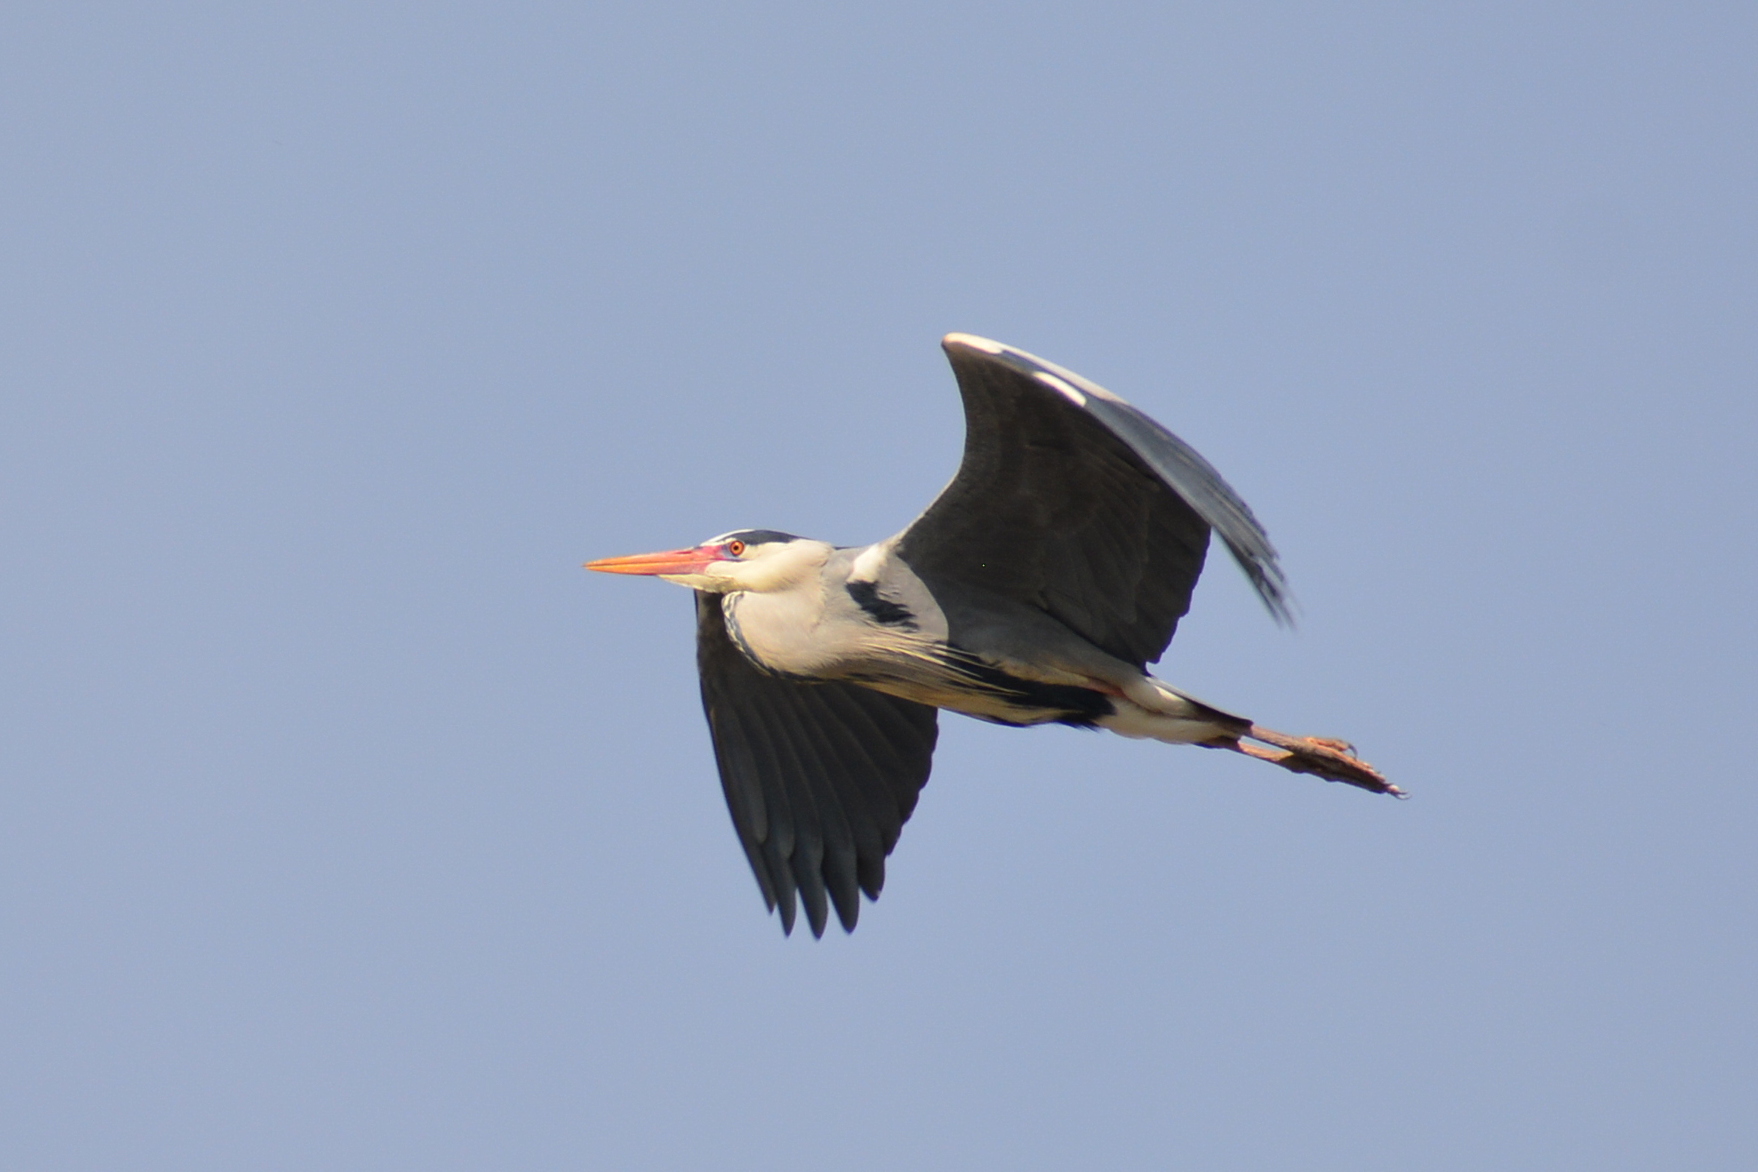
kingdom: Animalia
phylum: Chordata
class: Aves
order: Pelecaniformes
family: Ardeidae
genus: Ardea
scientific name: Ardea cinerea
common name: Grey heron
